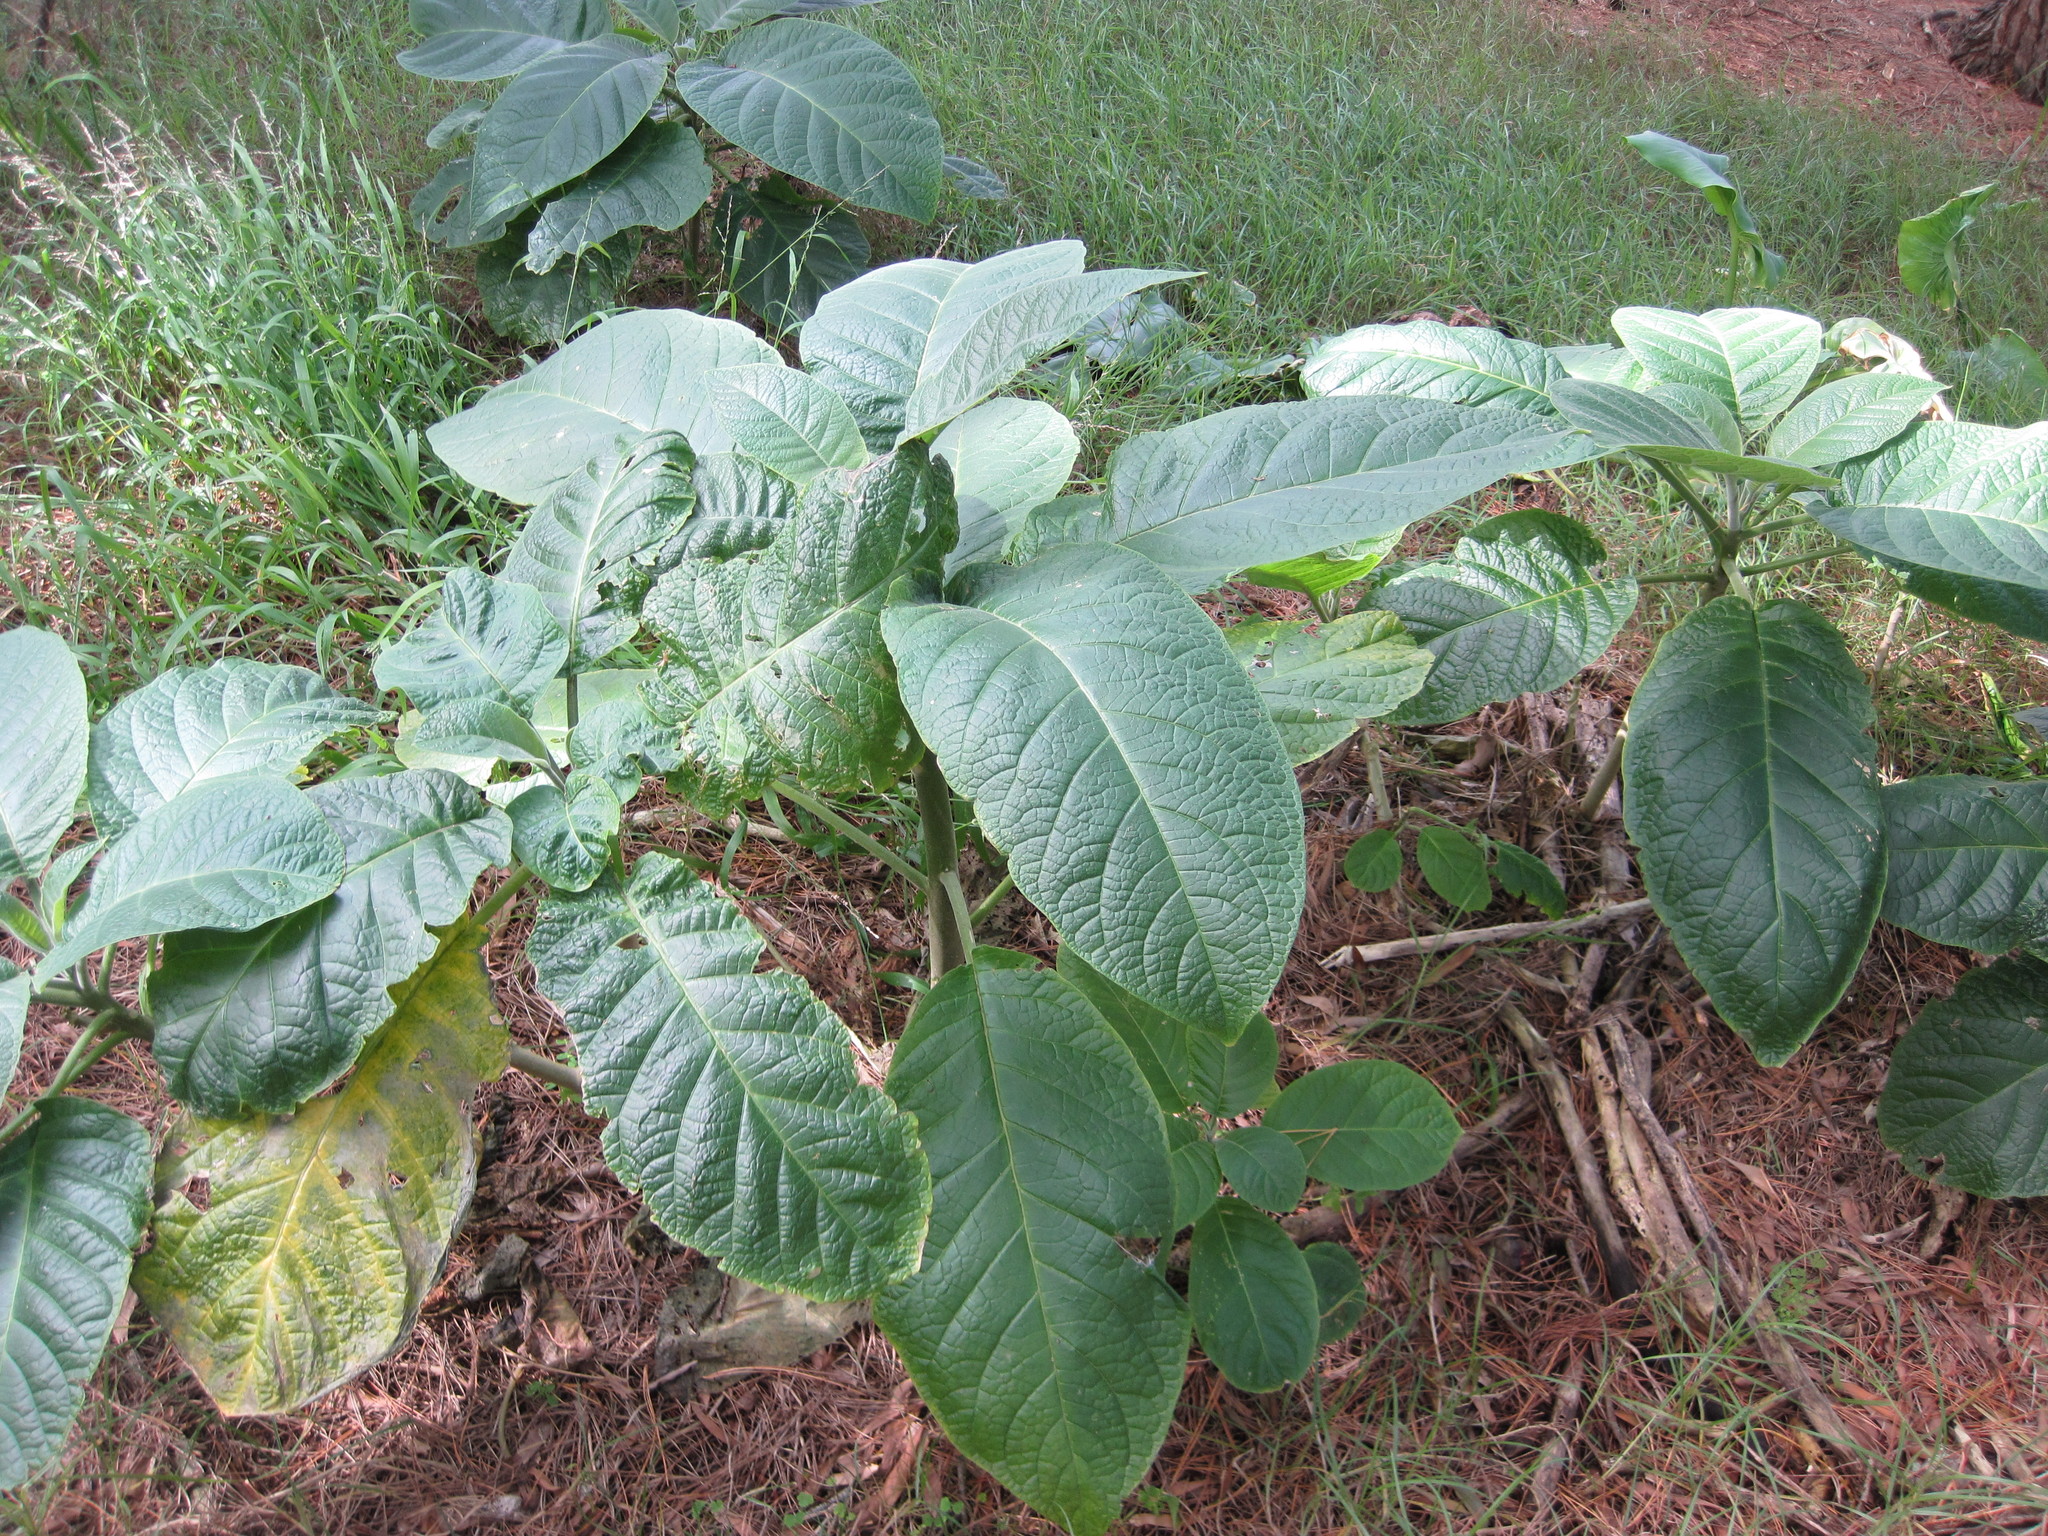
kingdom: Plantae
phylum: Tracheophyta
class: Magnoliopsida
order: Solanales
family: Solanaceae
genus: Brugmansia
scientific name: Brugmansia arborea
